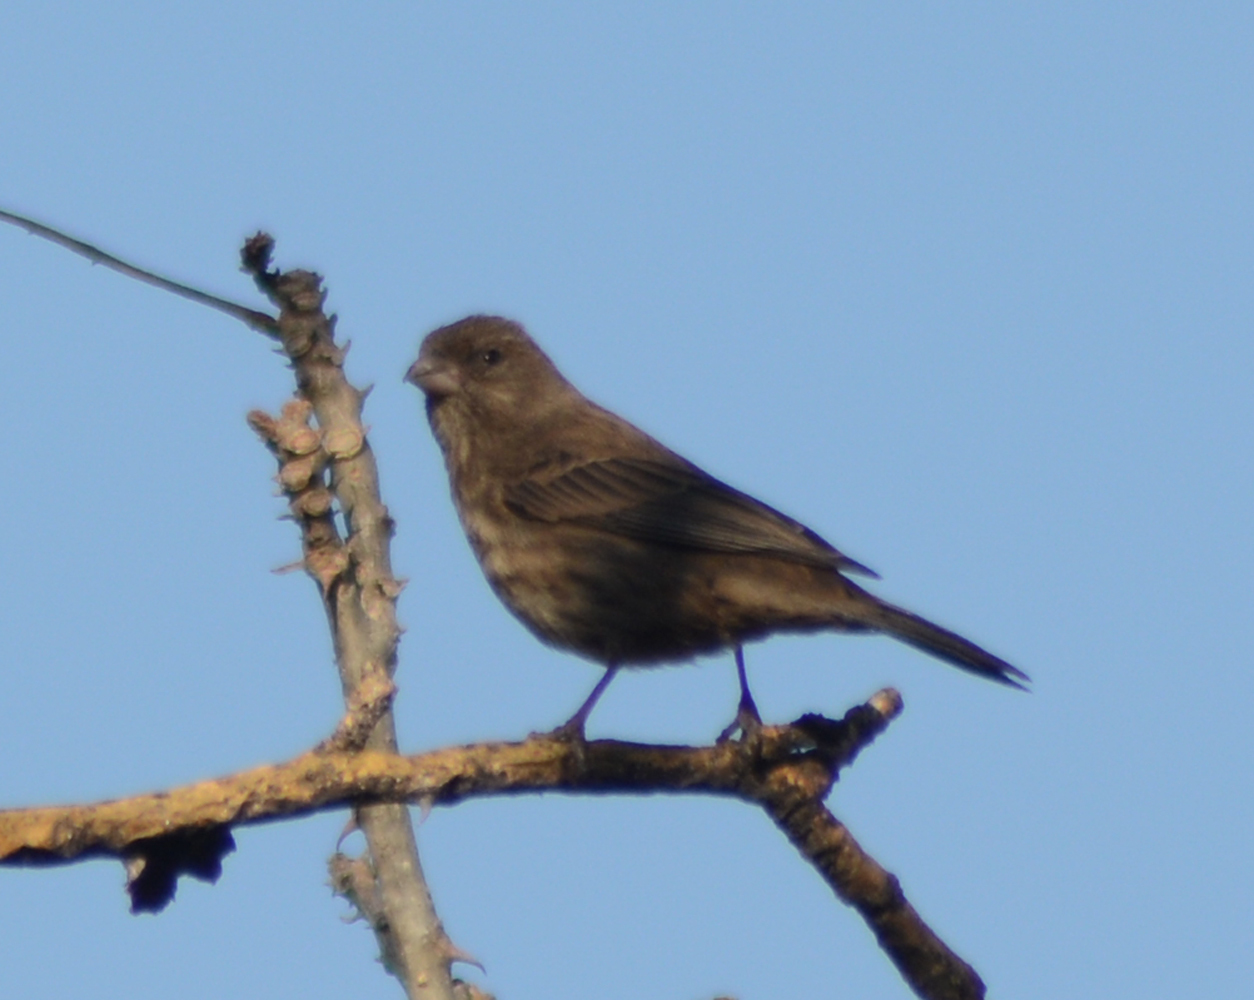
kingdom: Animalia
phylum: Chordata
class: Aves
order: Passeriformes
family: Fringillidae
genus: Haemorhous
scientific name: Haemorhous mexicanus
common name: House finch
